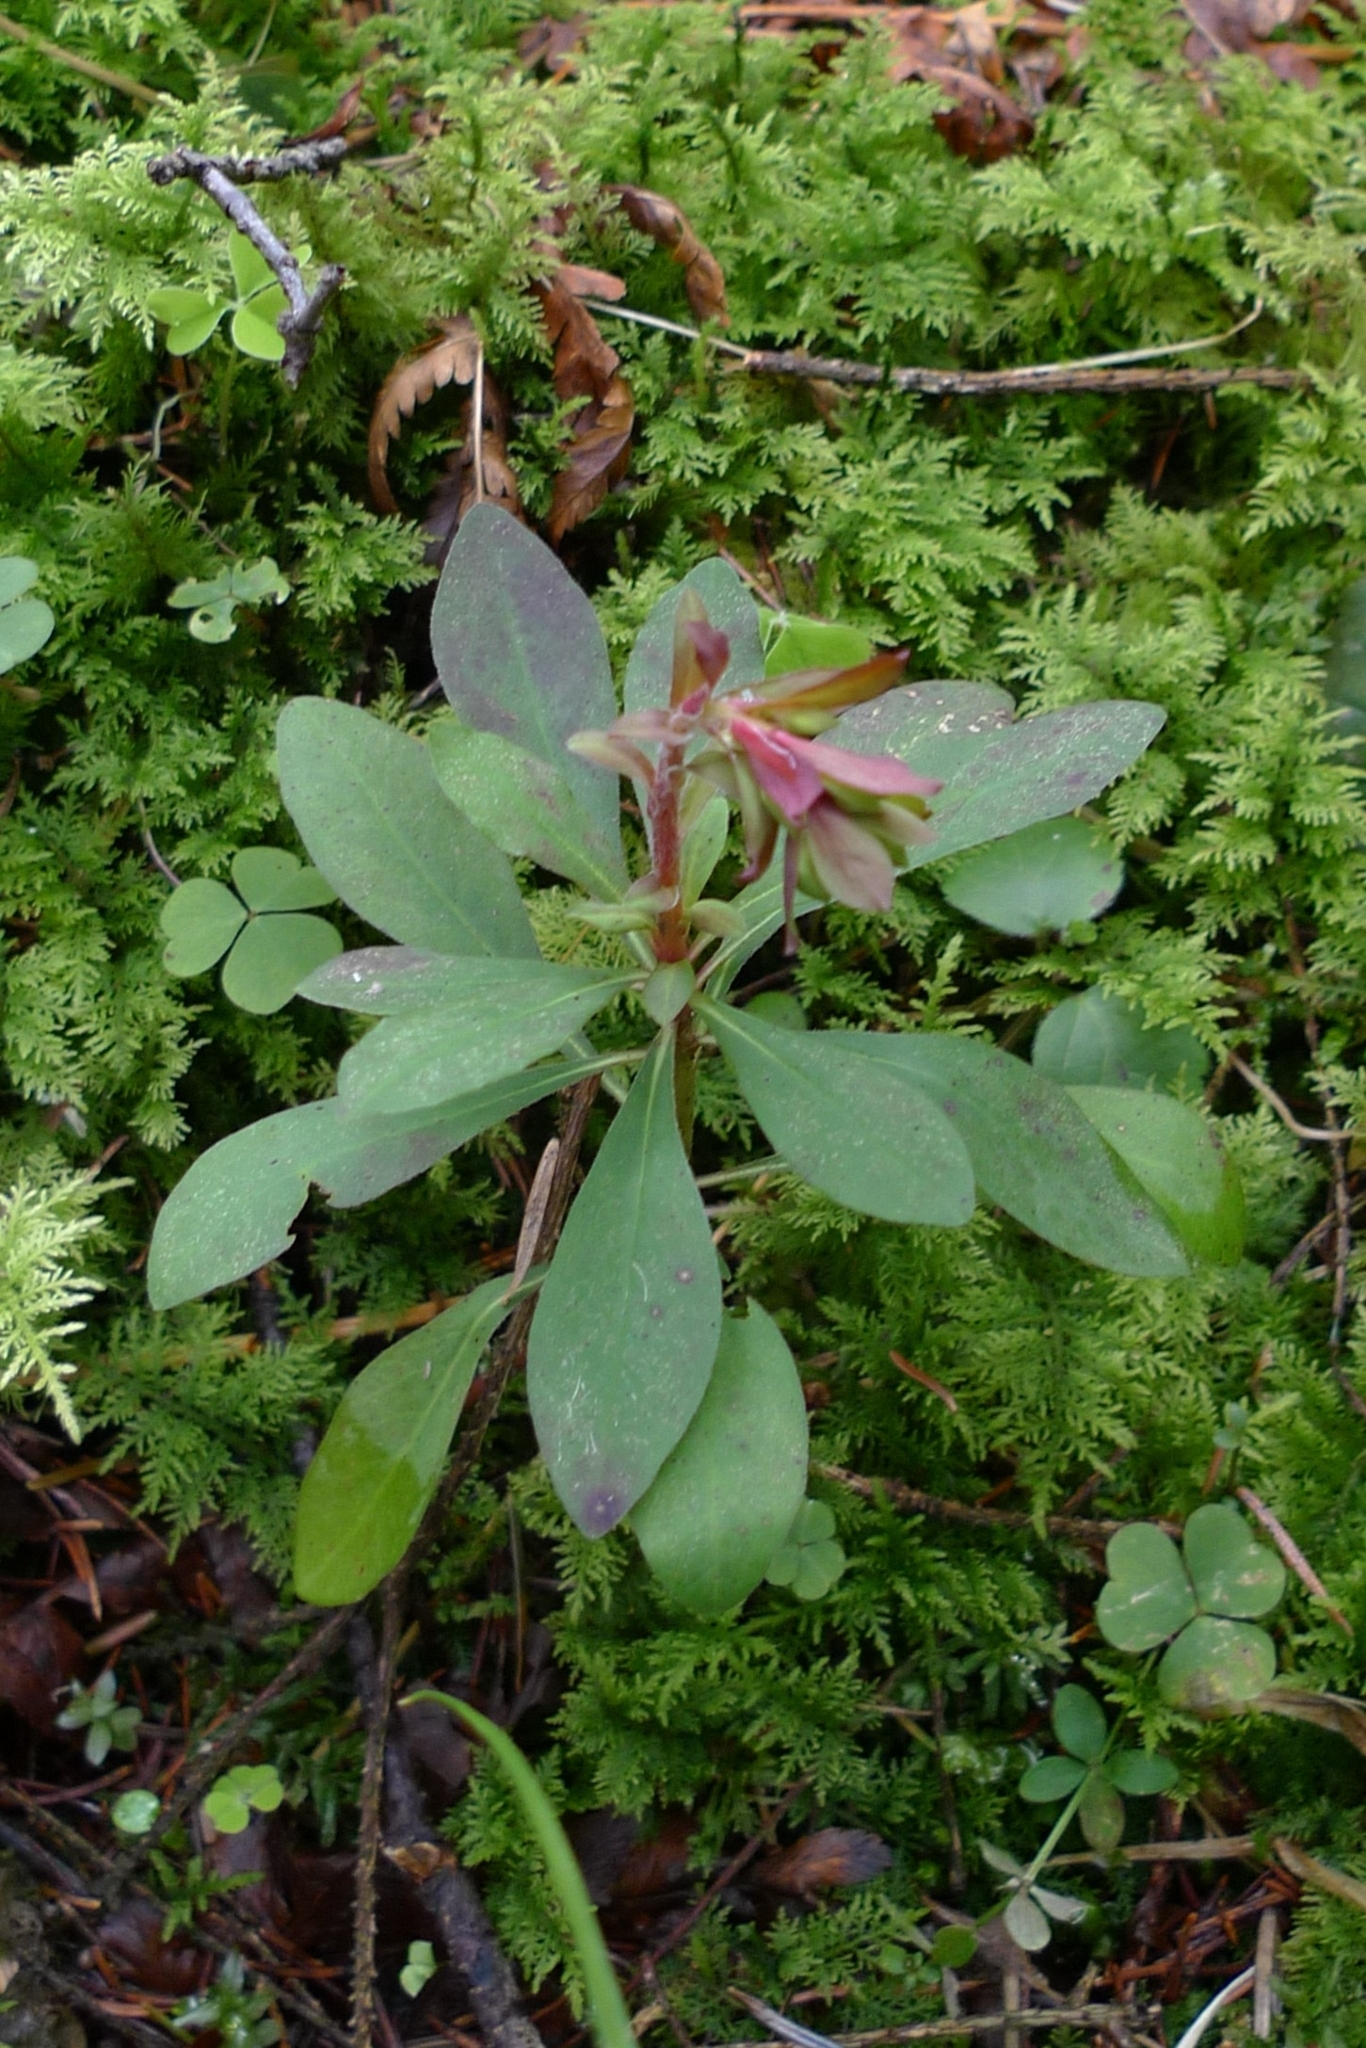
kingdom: Plantae
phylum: Tracheophyta
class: Magnoliopsida
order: Malpighiales
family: Euphorbiaceae
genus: Euphorbia
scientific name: Euphorbia amygdaloides
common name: Wood spurge
